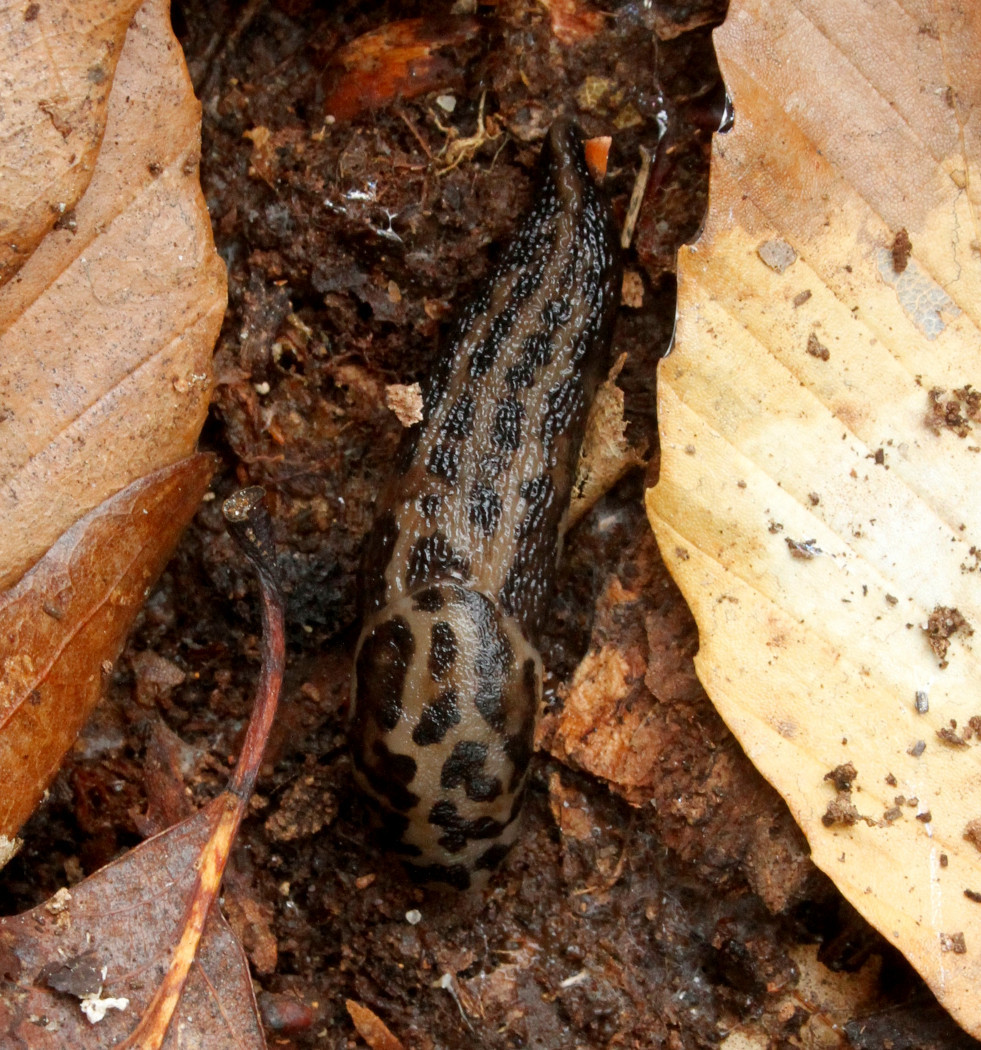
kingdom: Animalia
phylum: Mollusca
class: Gastropoda
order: Stylommatophora
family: Limacidae
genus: Limax
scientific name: Limax maximus
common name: Great grey slug
